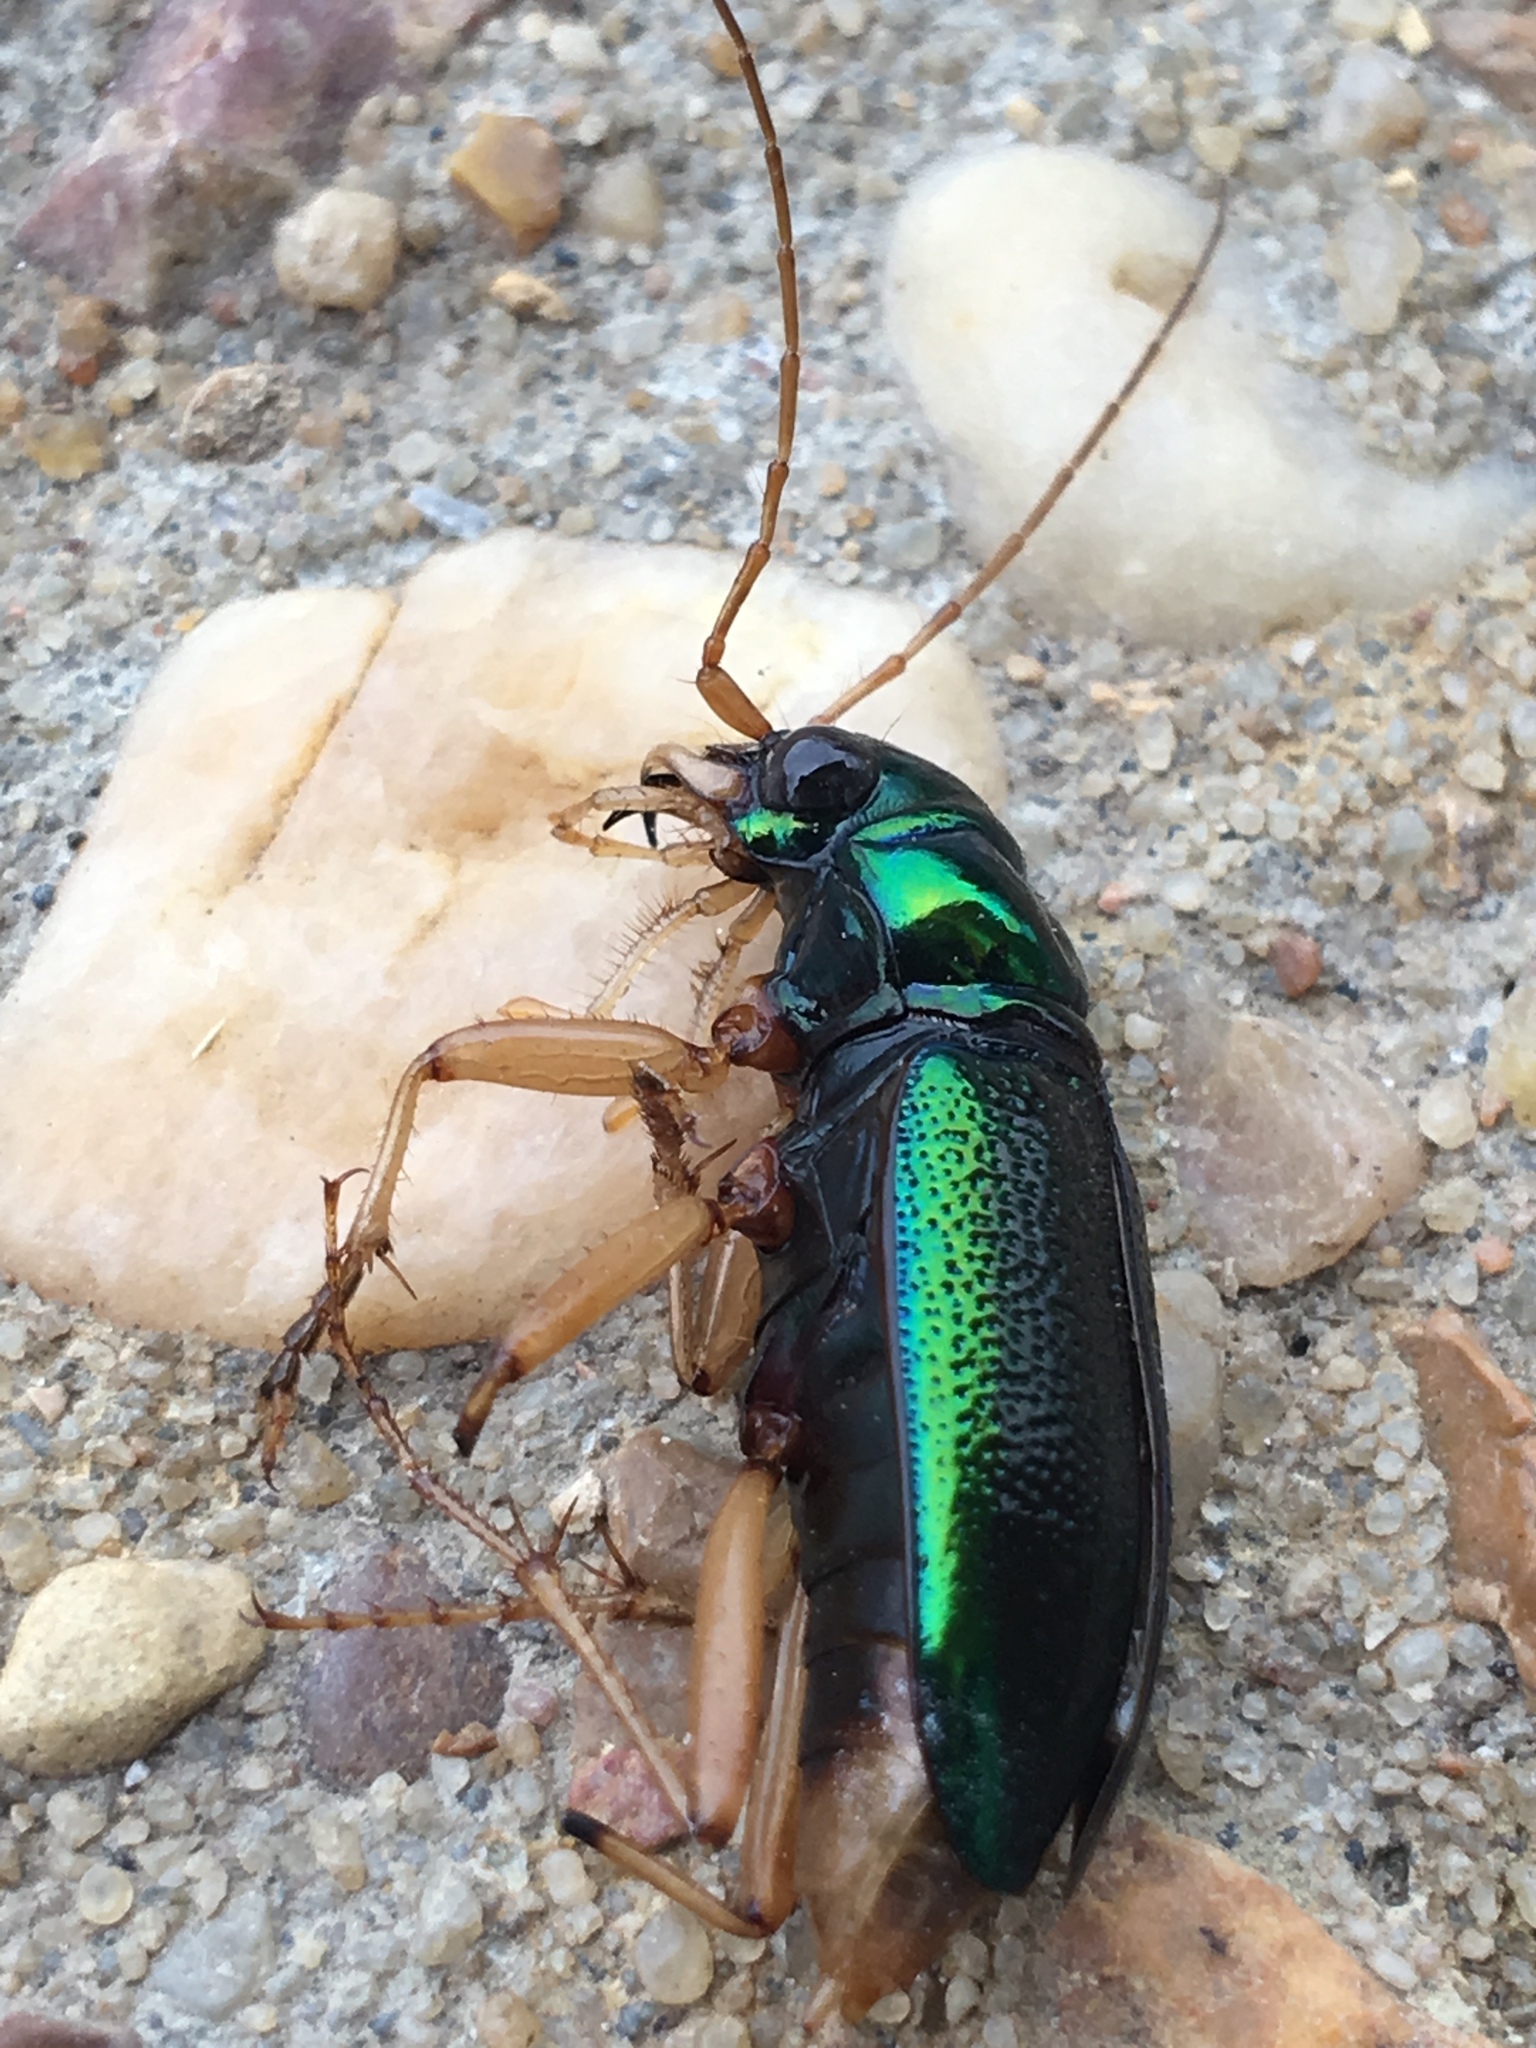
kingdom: Animalia
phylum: Arthropoda
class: Insecta
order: Coleoptera
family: Carabidae
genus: Tetracha
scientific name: Tetracha virginica
